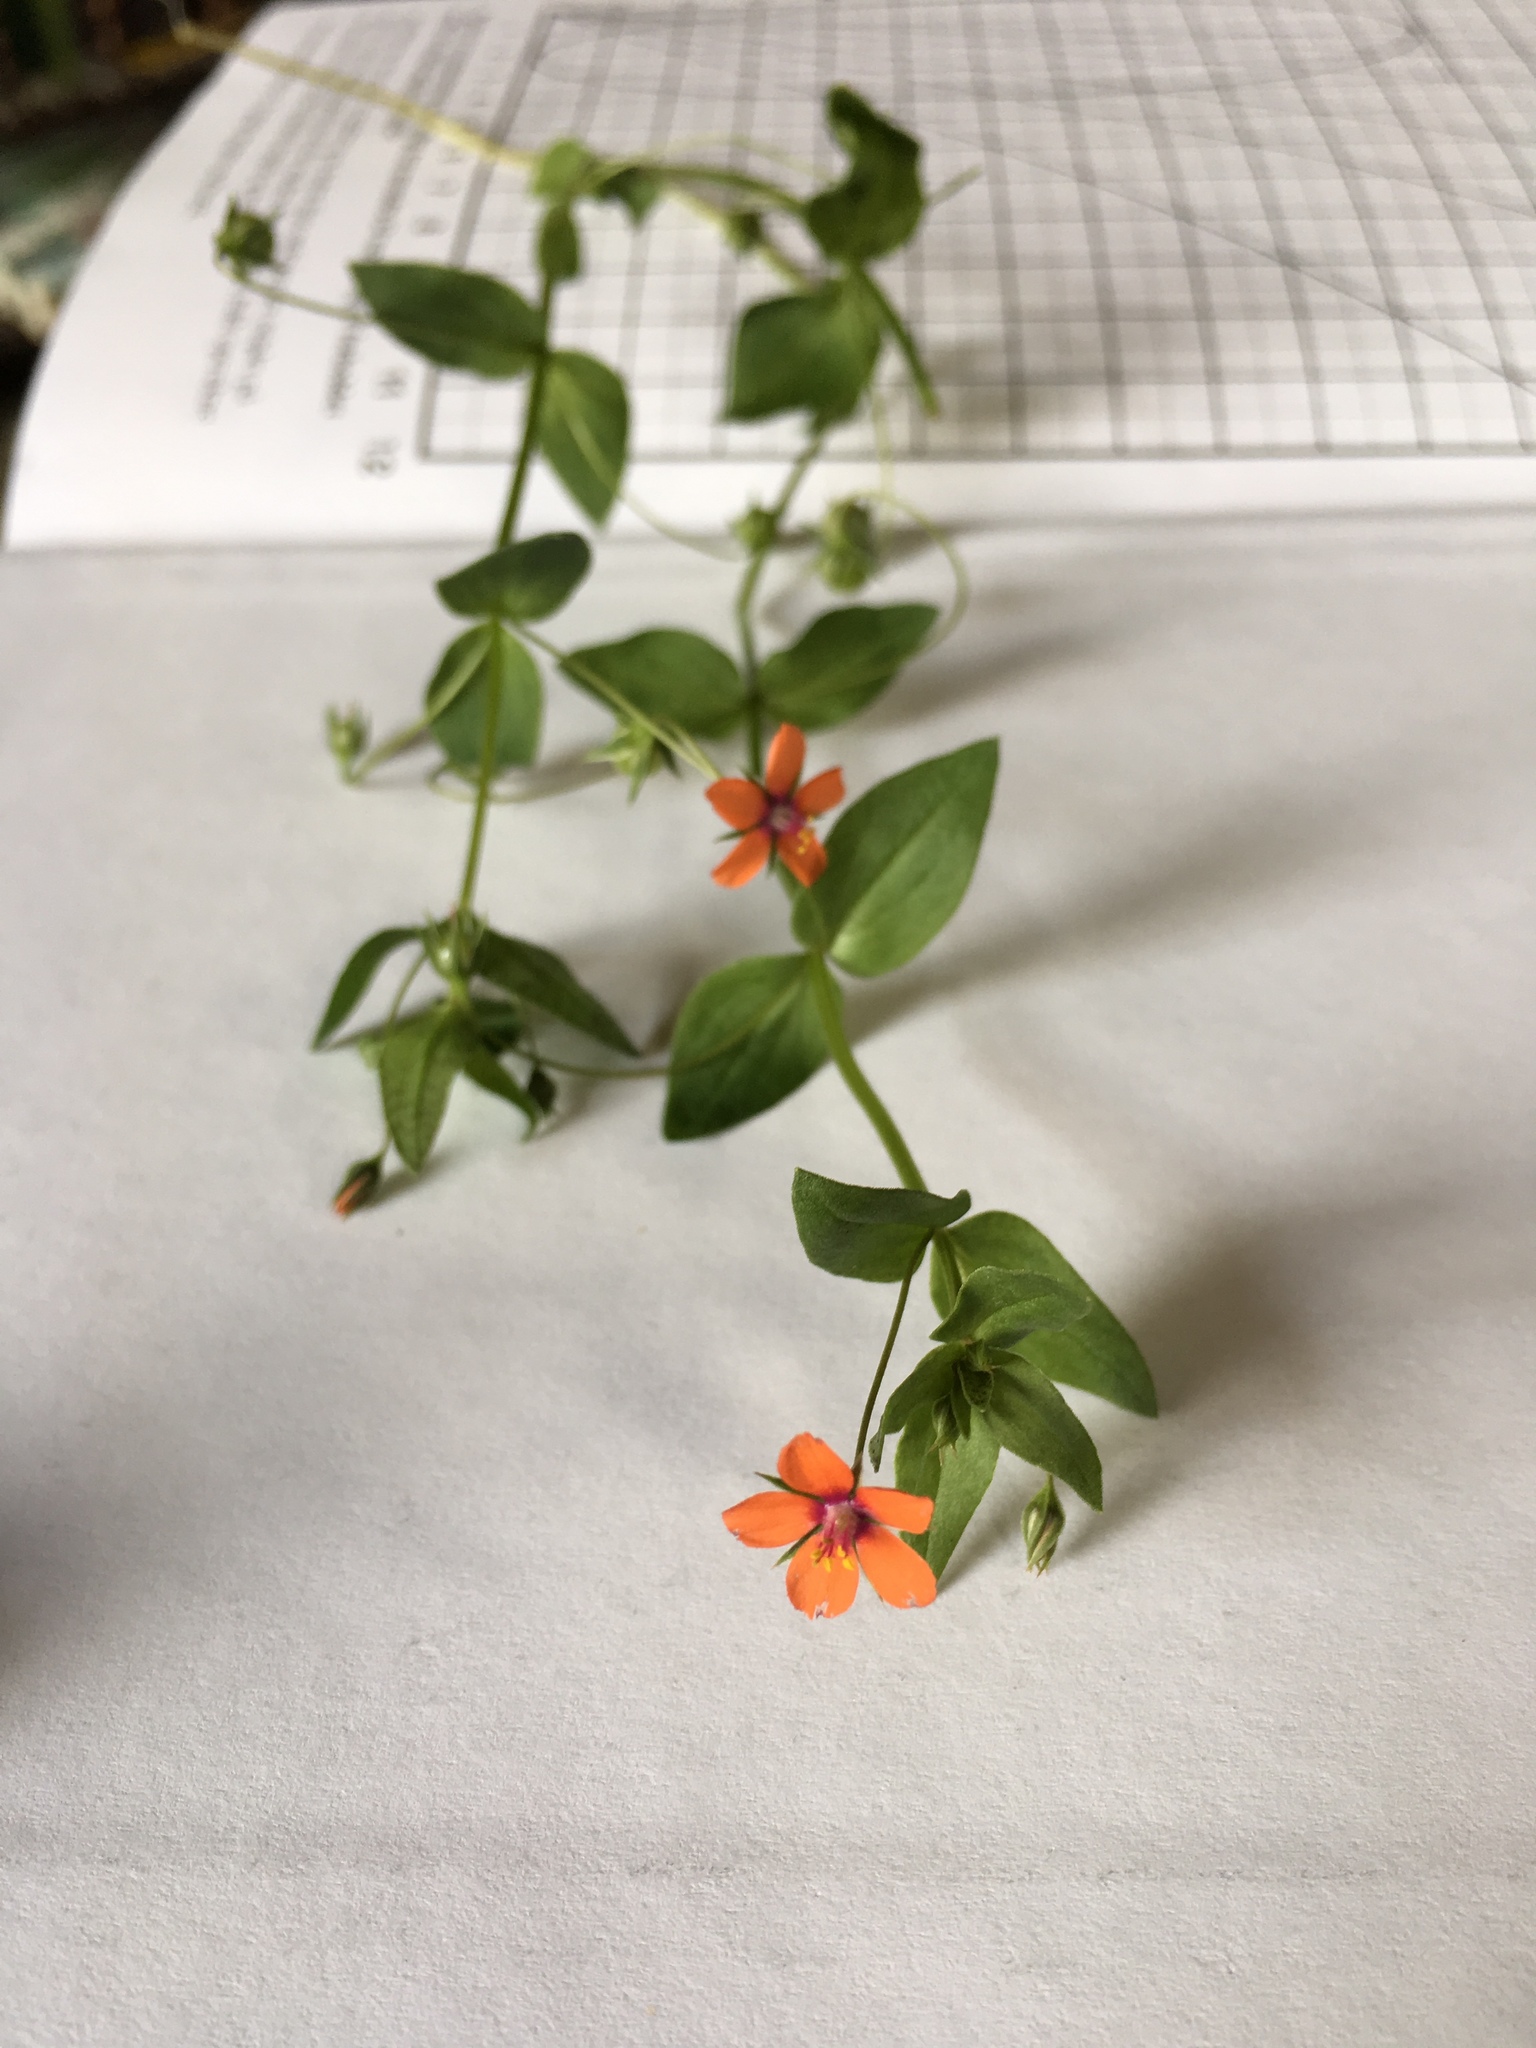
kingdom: Plantae
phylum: Tracheophyta
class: Magnoliopsida
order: Ericales
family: Primulaceae
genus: Lysimachia
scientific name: Lysimachia arvensis
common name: Scarlet pimpernel
